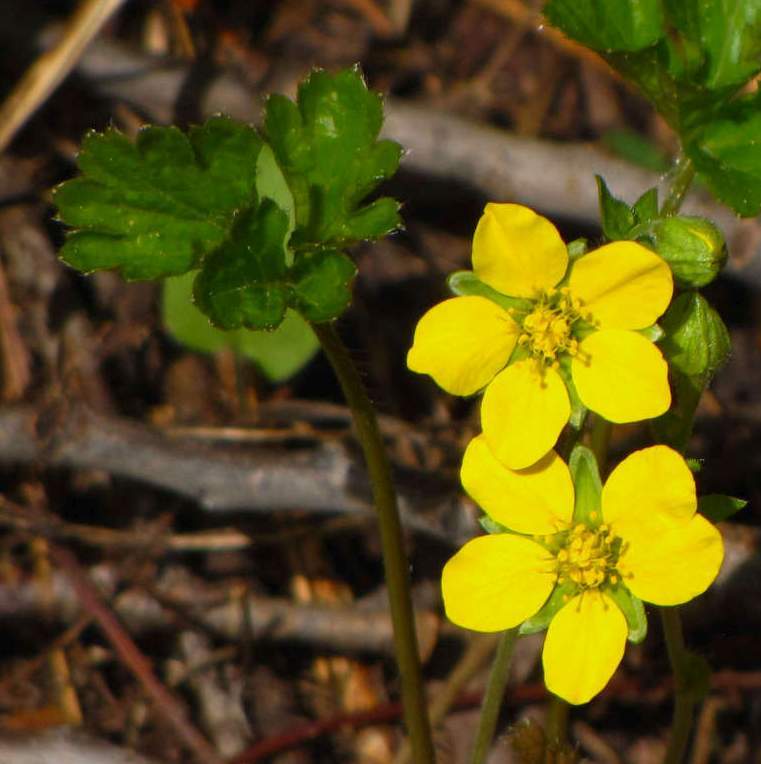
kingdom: Plantae
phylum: Tracheophyta
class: Magnoliopsida
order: Rosales
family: Rosaceae
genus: Geum
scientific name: Geum fragarioides
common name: Appalachian barren strawberry
